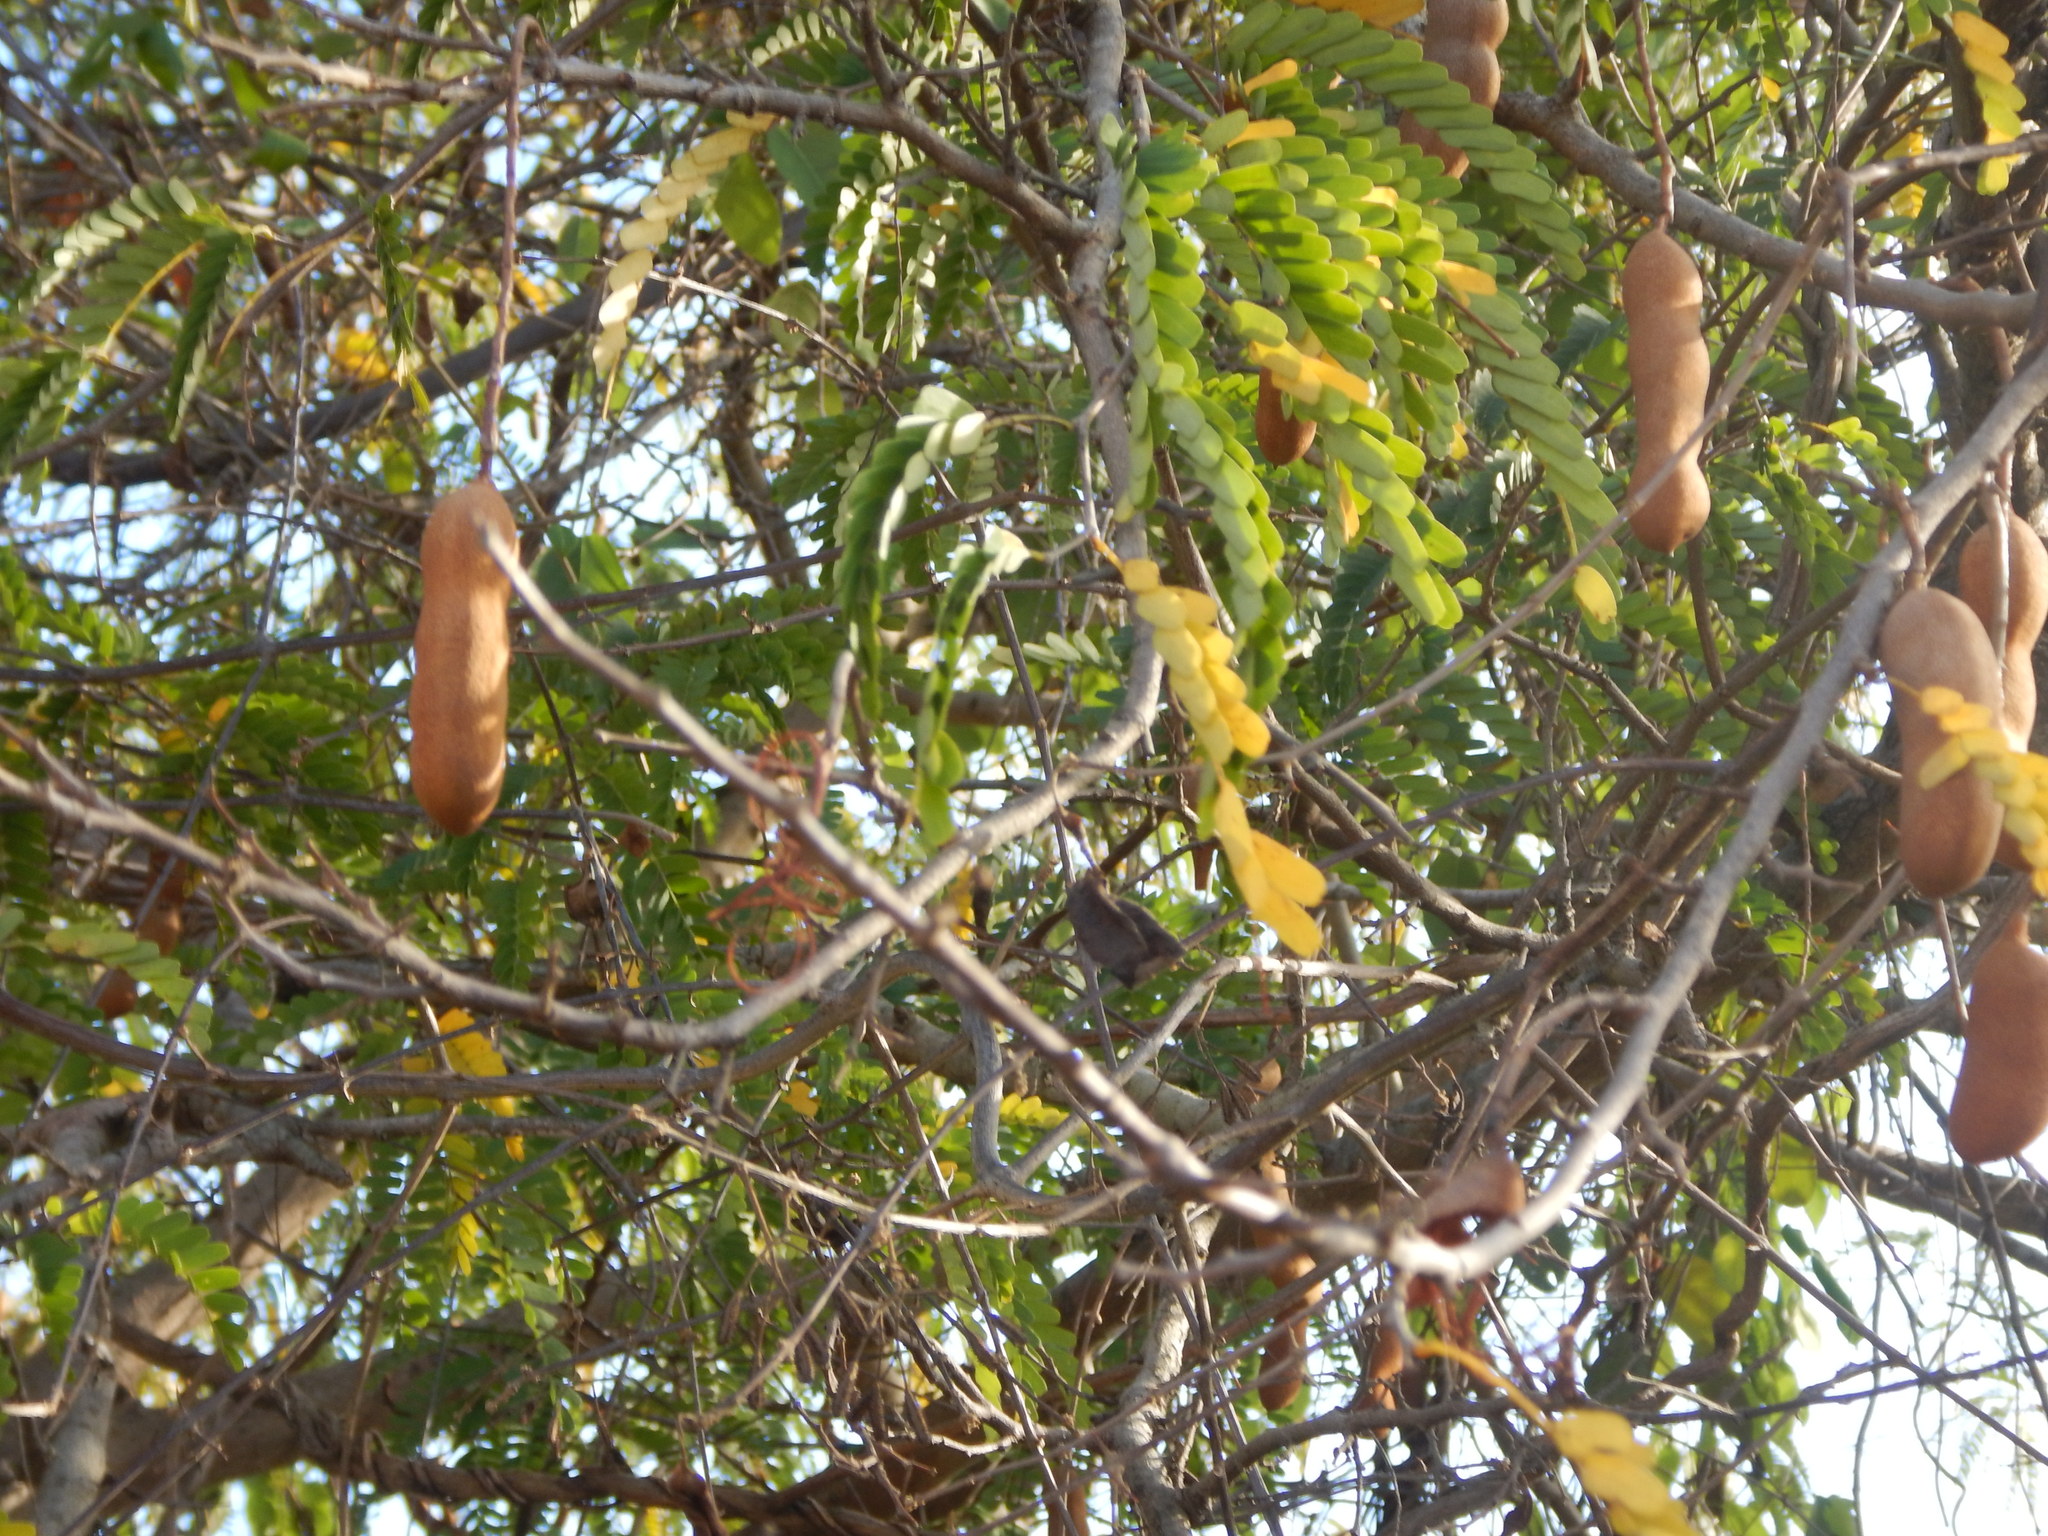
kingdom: Plantae
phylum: Tracheophyta
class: Magnoliopsida
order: Fabales
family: Fabaceae
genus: Tamarindus
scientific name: Tamarindus indica
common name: Tamarind
